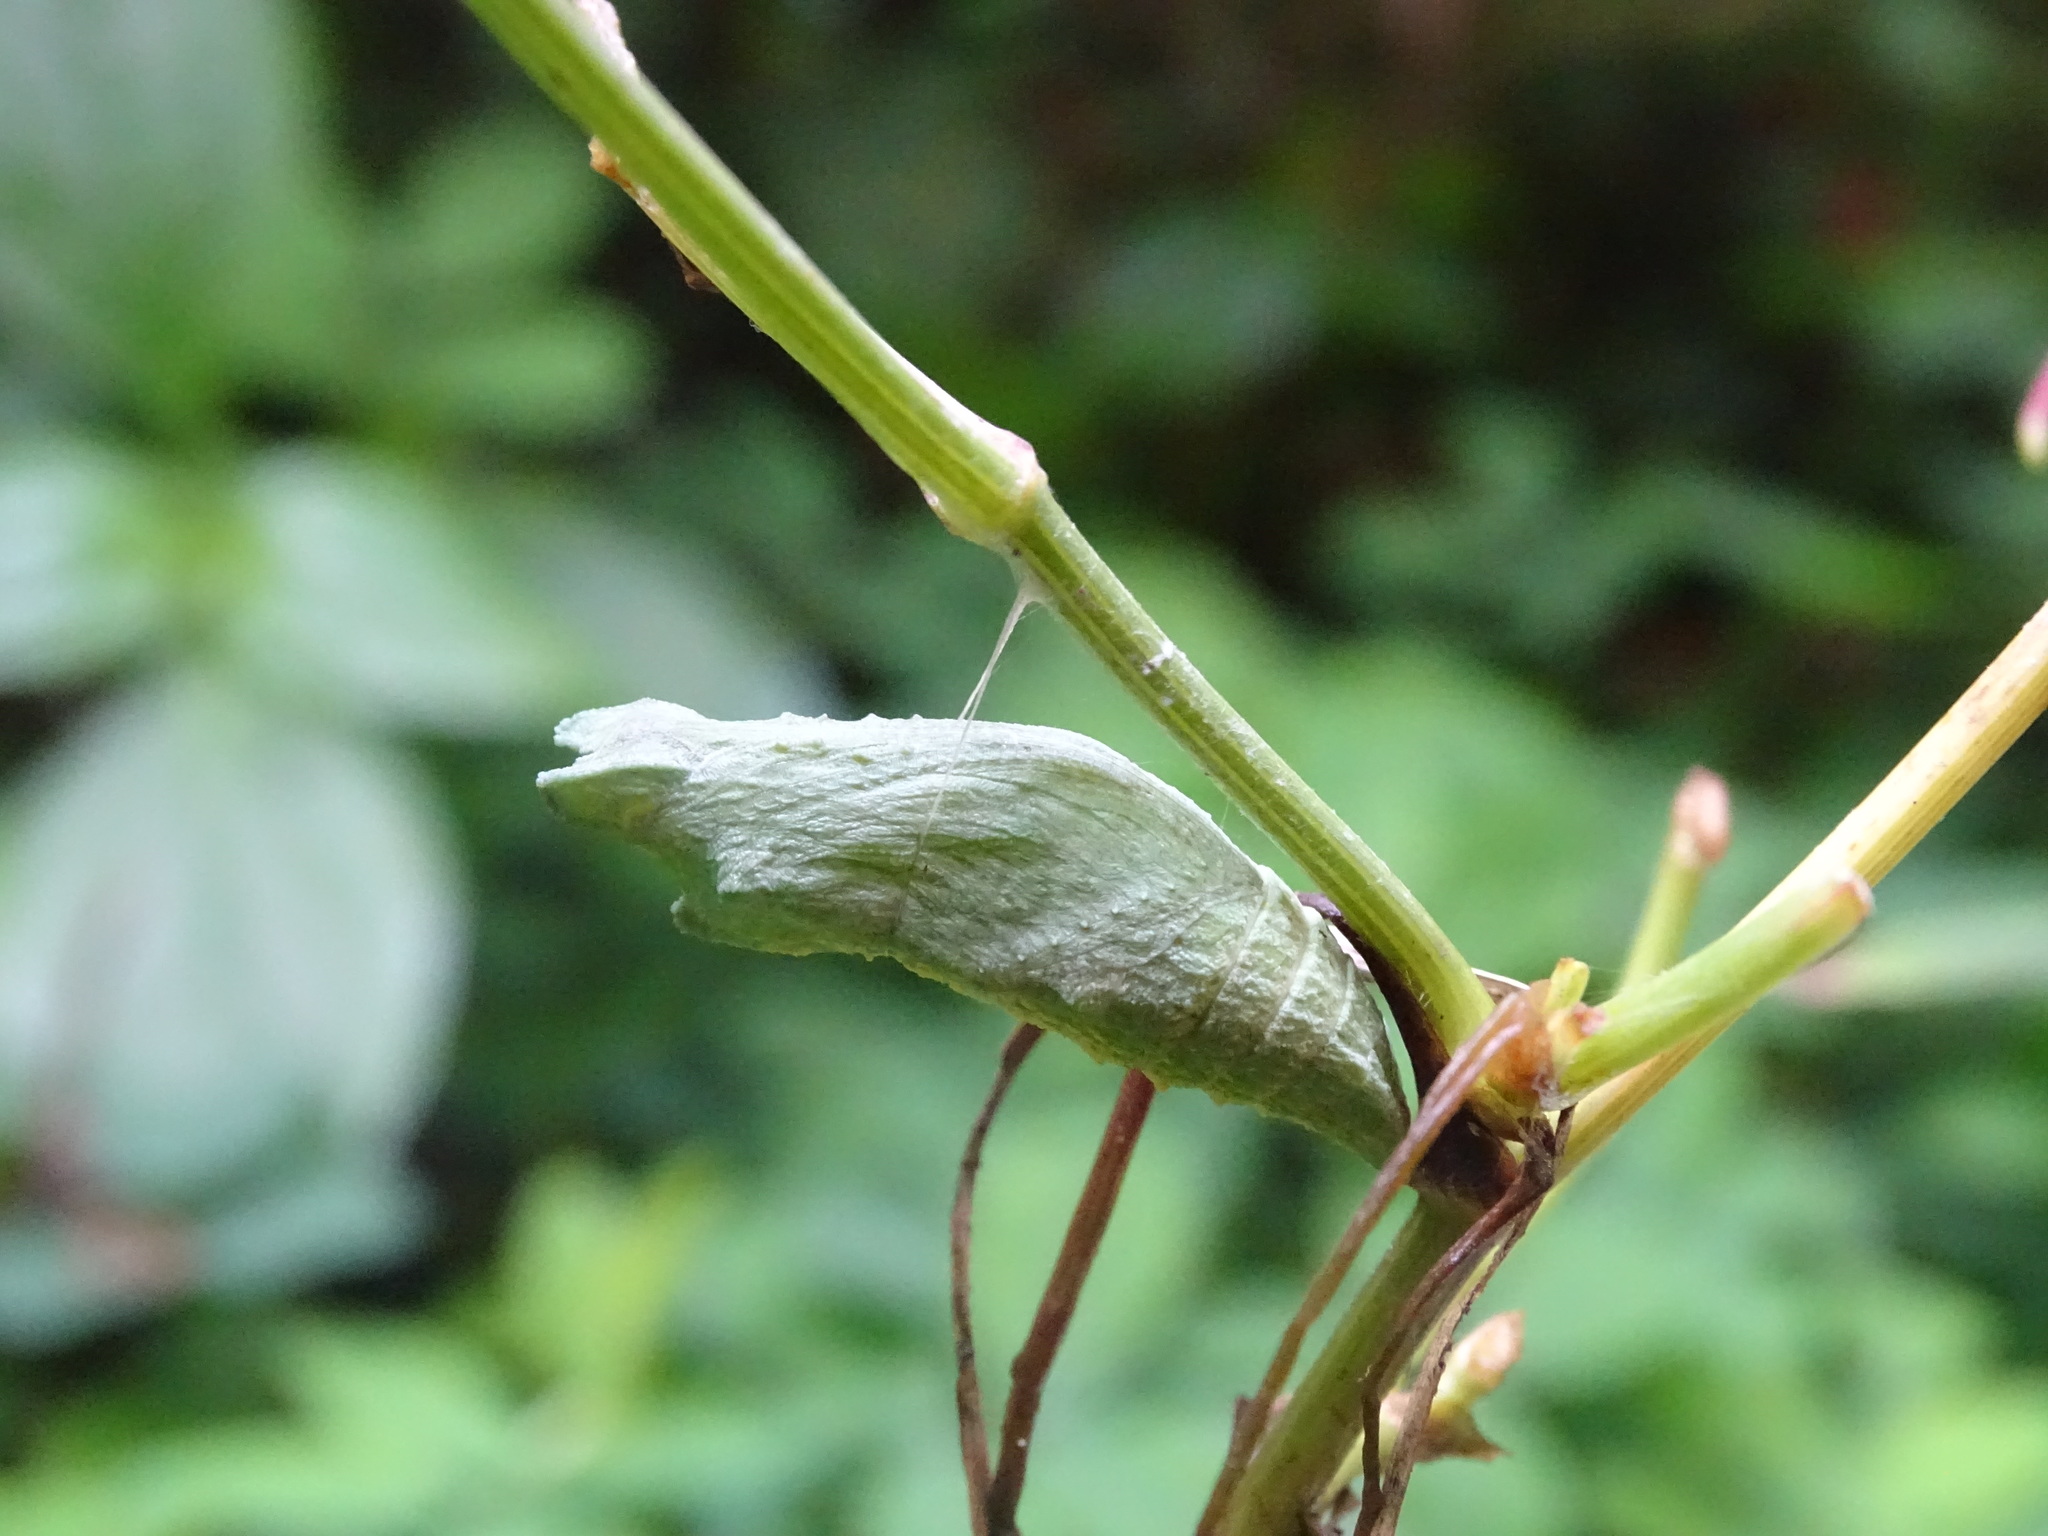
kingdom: Animalia
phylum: Arthropoda
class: Insecta
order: Lepidoptera
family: Papilionidae
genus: Papilio
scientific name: Papilio polyxenes
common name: Black swallowtail
